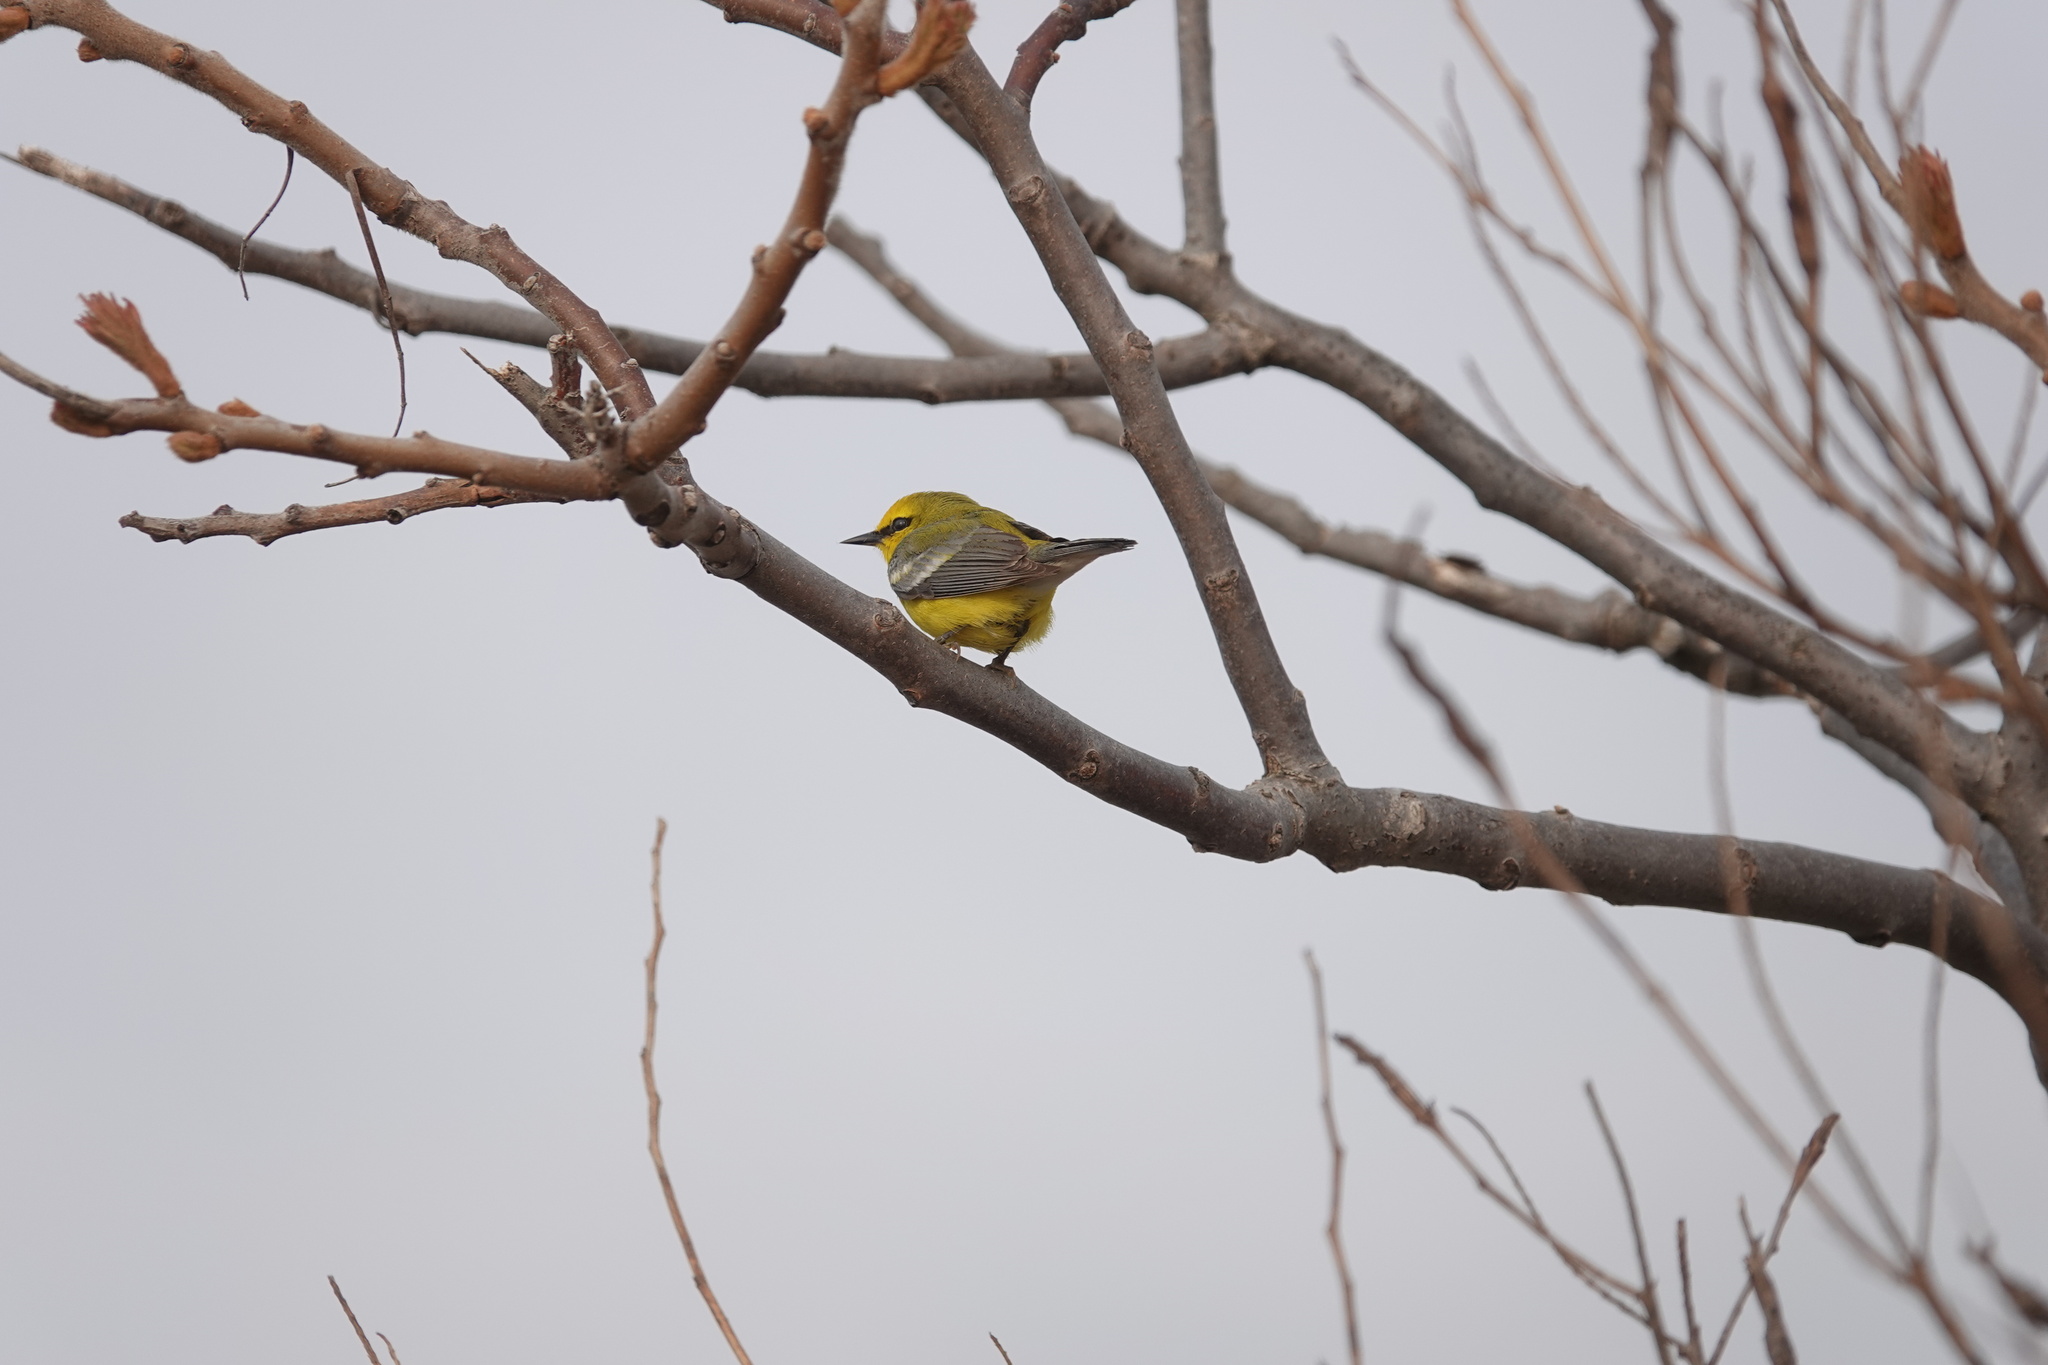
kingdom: Animalia
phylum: Chordata
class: Aves
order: Passeriformes
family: Parulidae
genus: Vermivora
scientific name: Vermivora cyanoptera
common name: Blue-winged warbler
